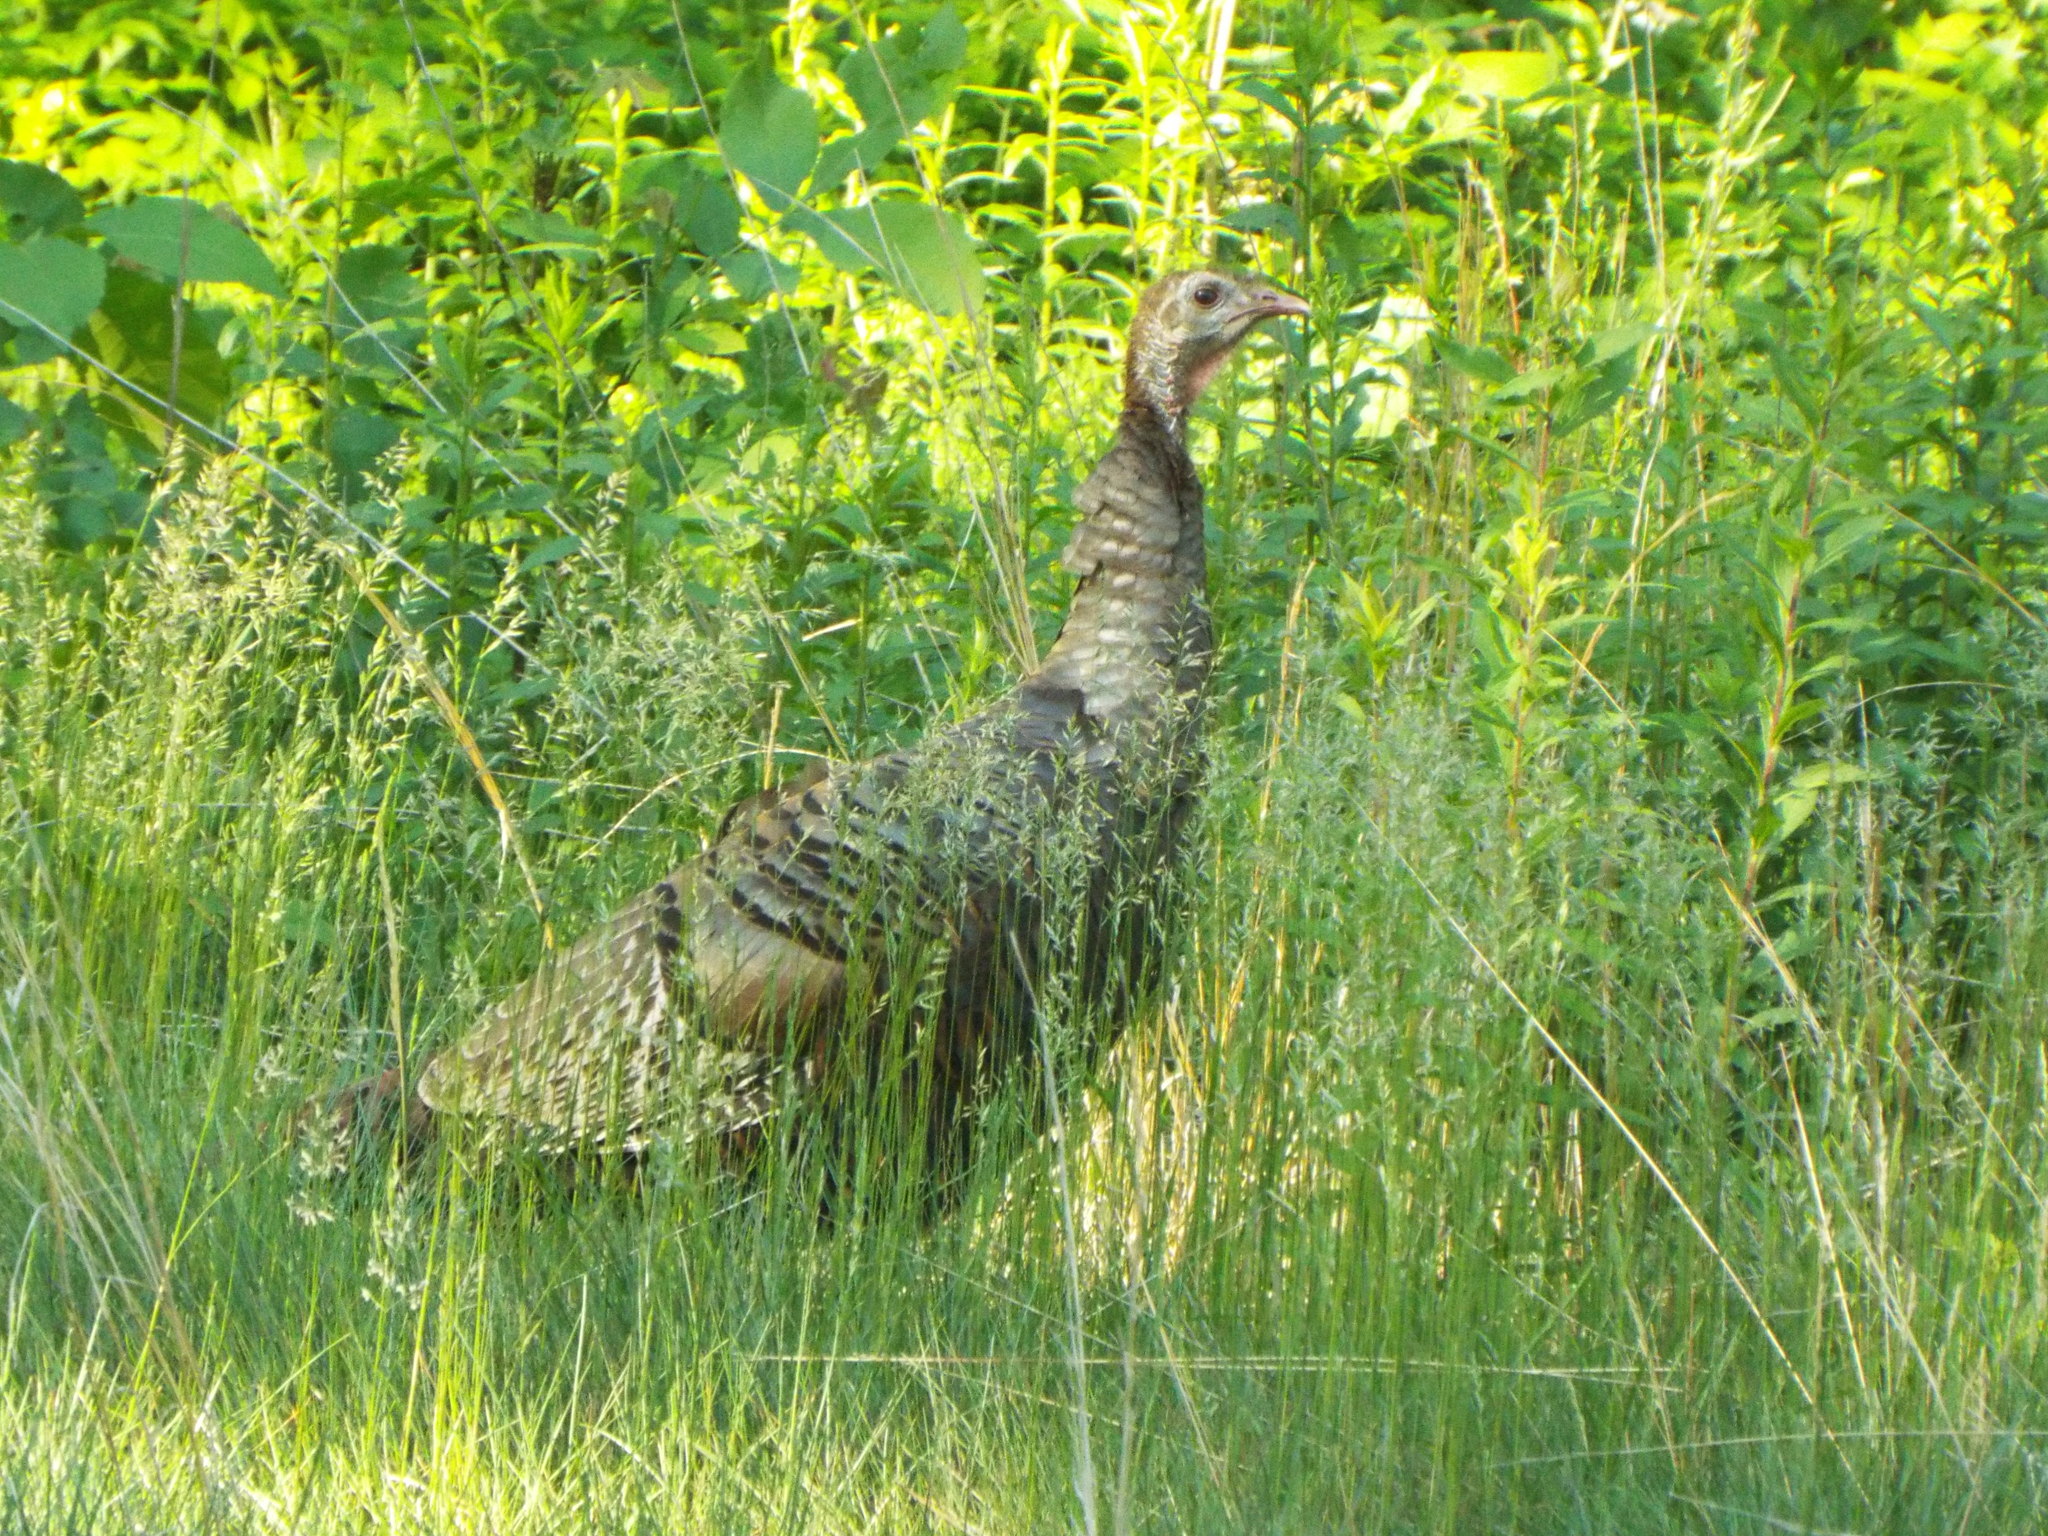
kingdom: Animalia
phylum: Chordata
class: Aves
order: Galliformes
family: Phasianidae
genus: Meleagris
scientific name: Meleagris gallopavo
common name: Wild turkey
